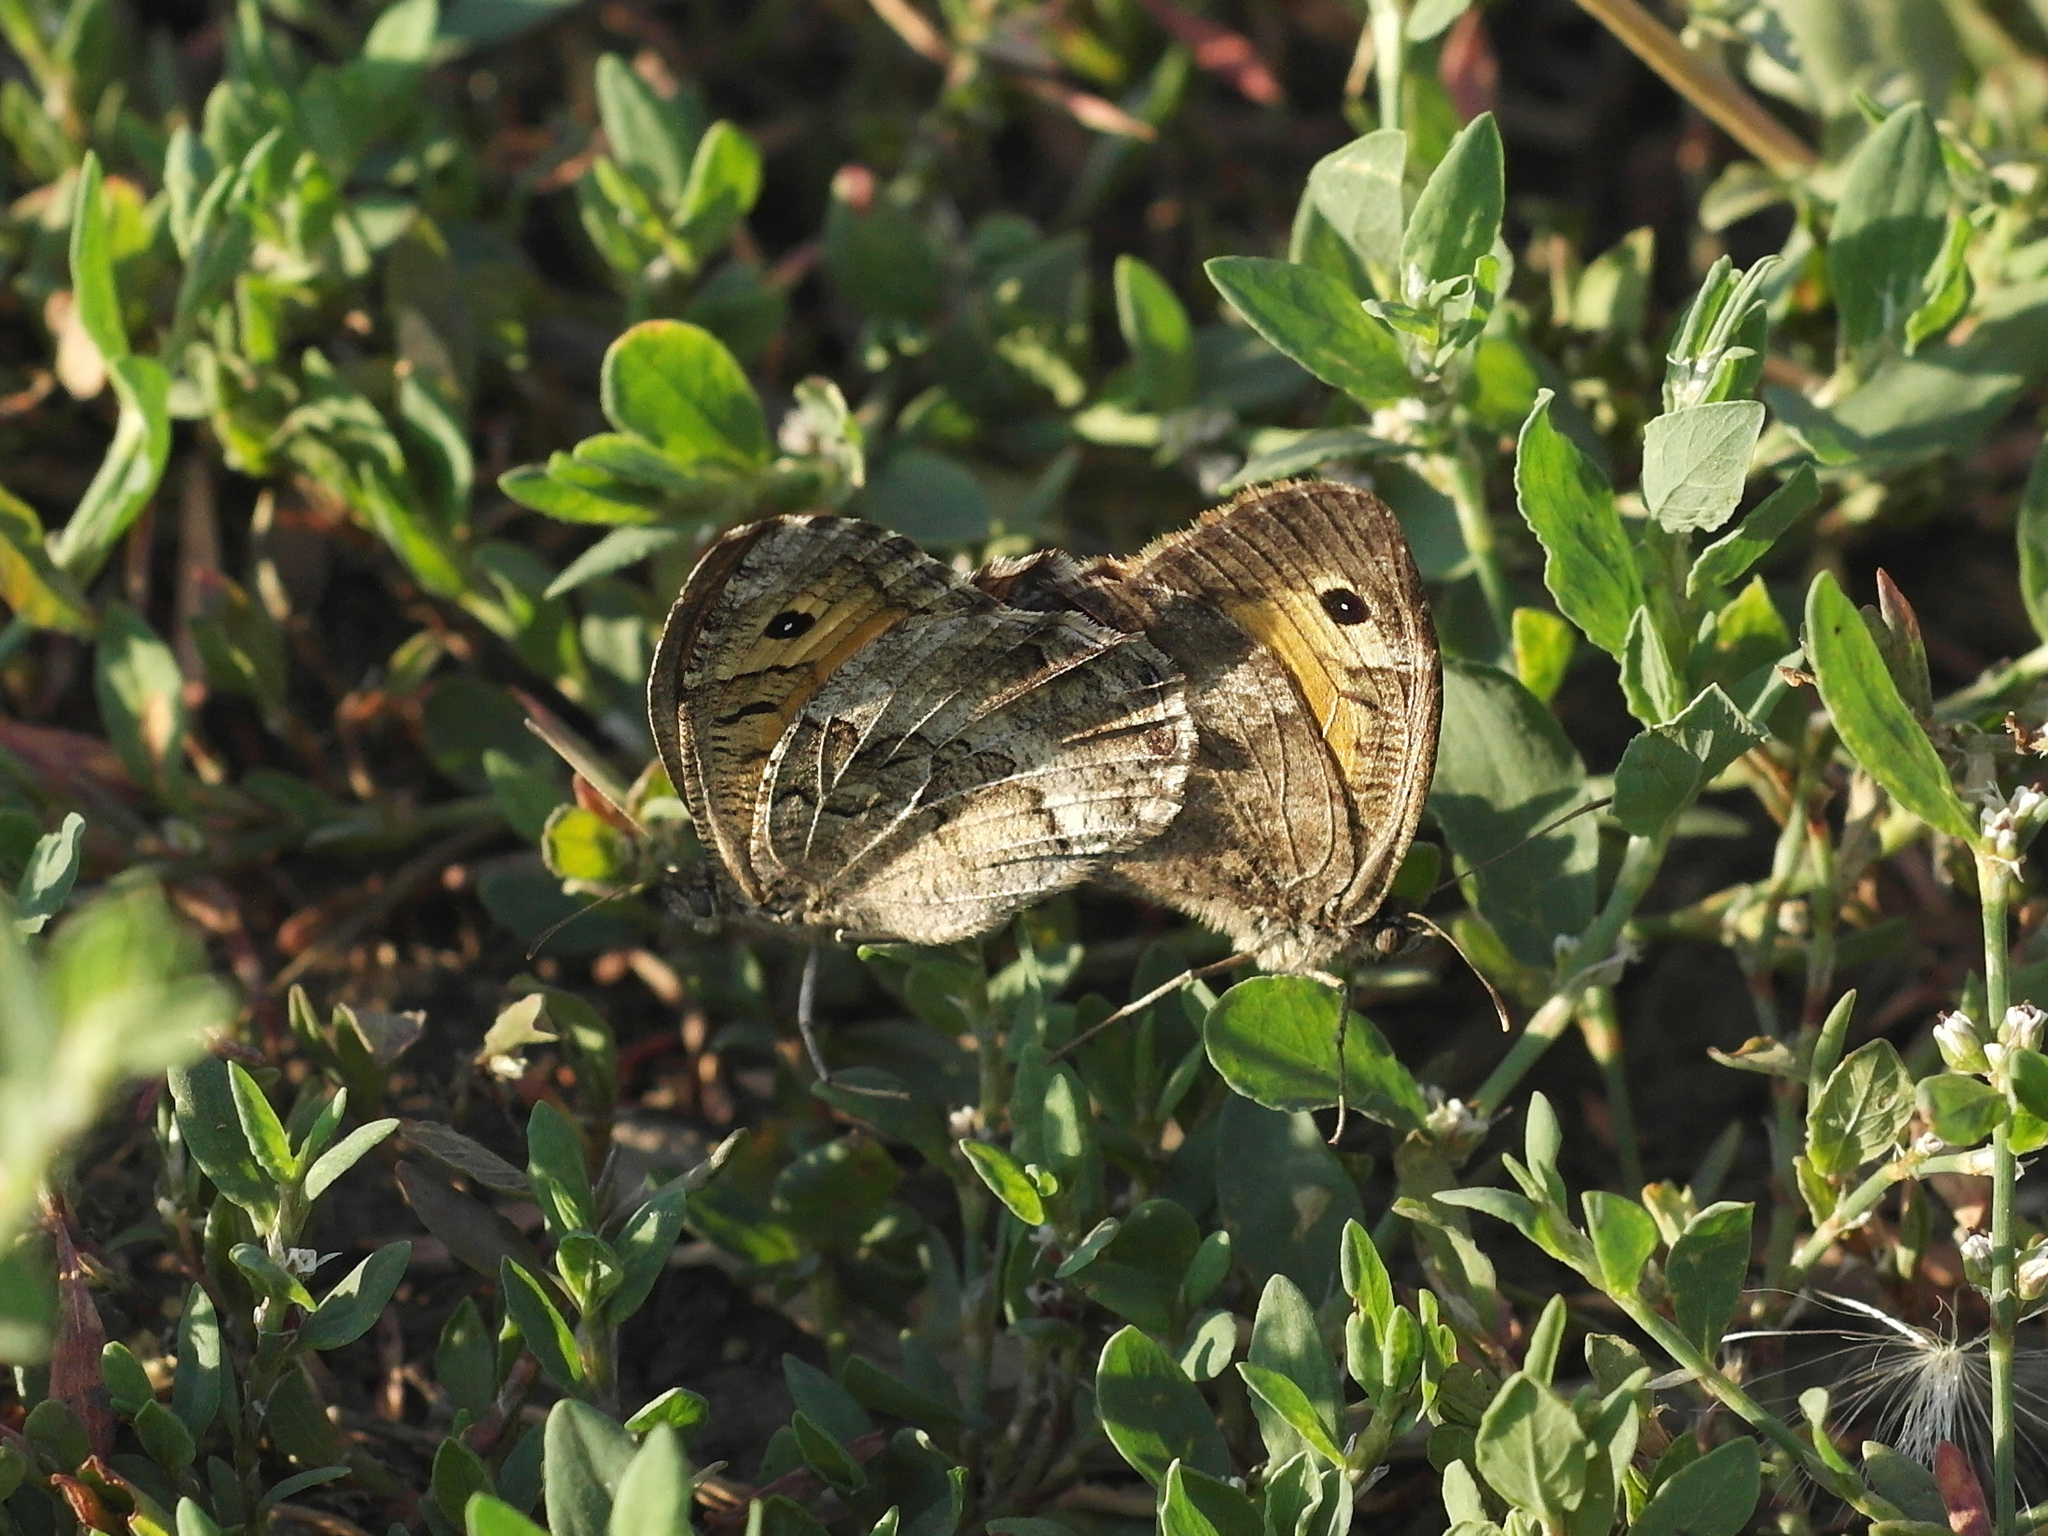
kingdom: Animalia
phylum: Arthropoda
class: Insecta
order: Lepidoptera
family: Nymphalidae
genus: Arethusana
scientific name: Arethusana arethusa
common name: False grayling
